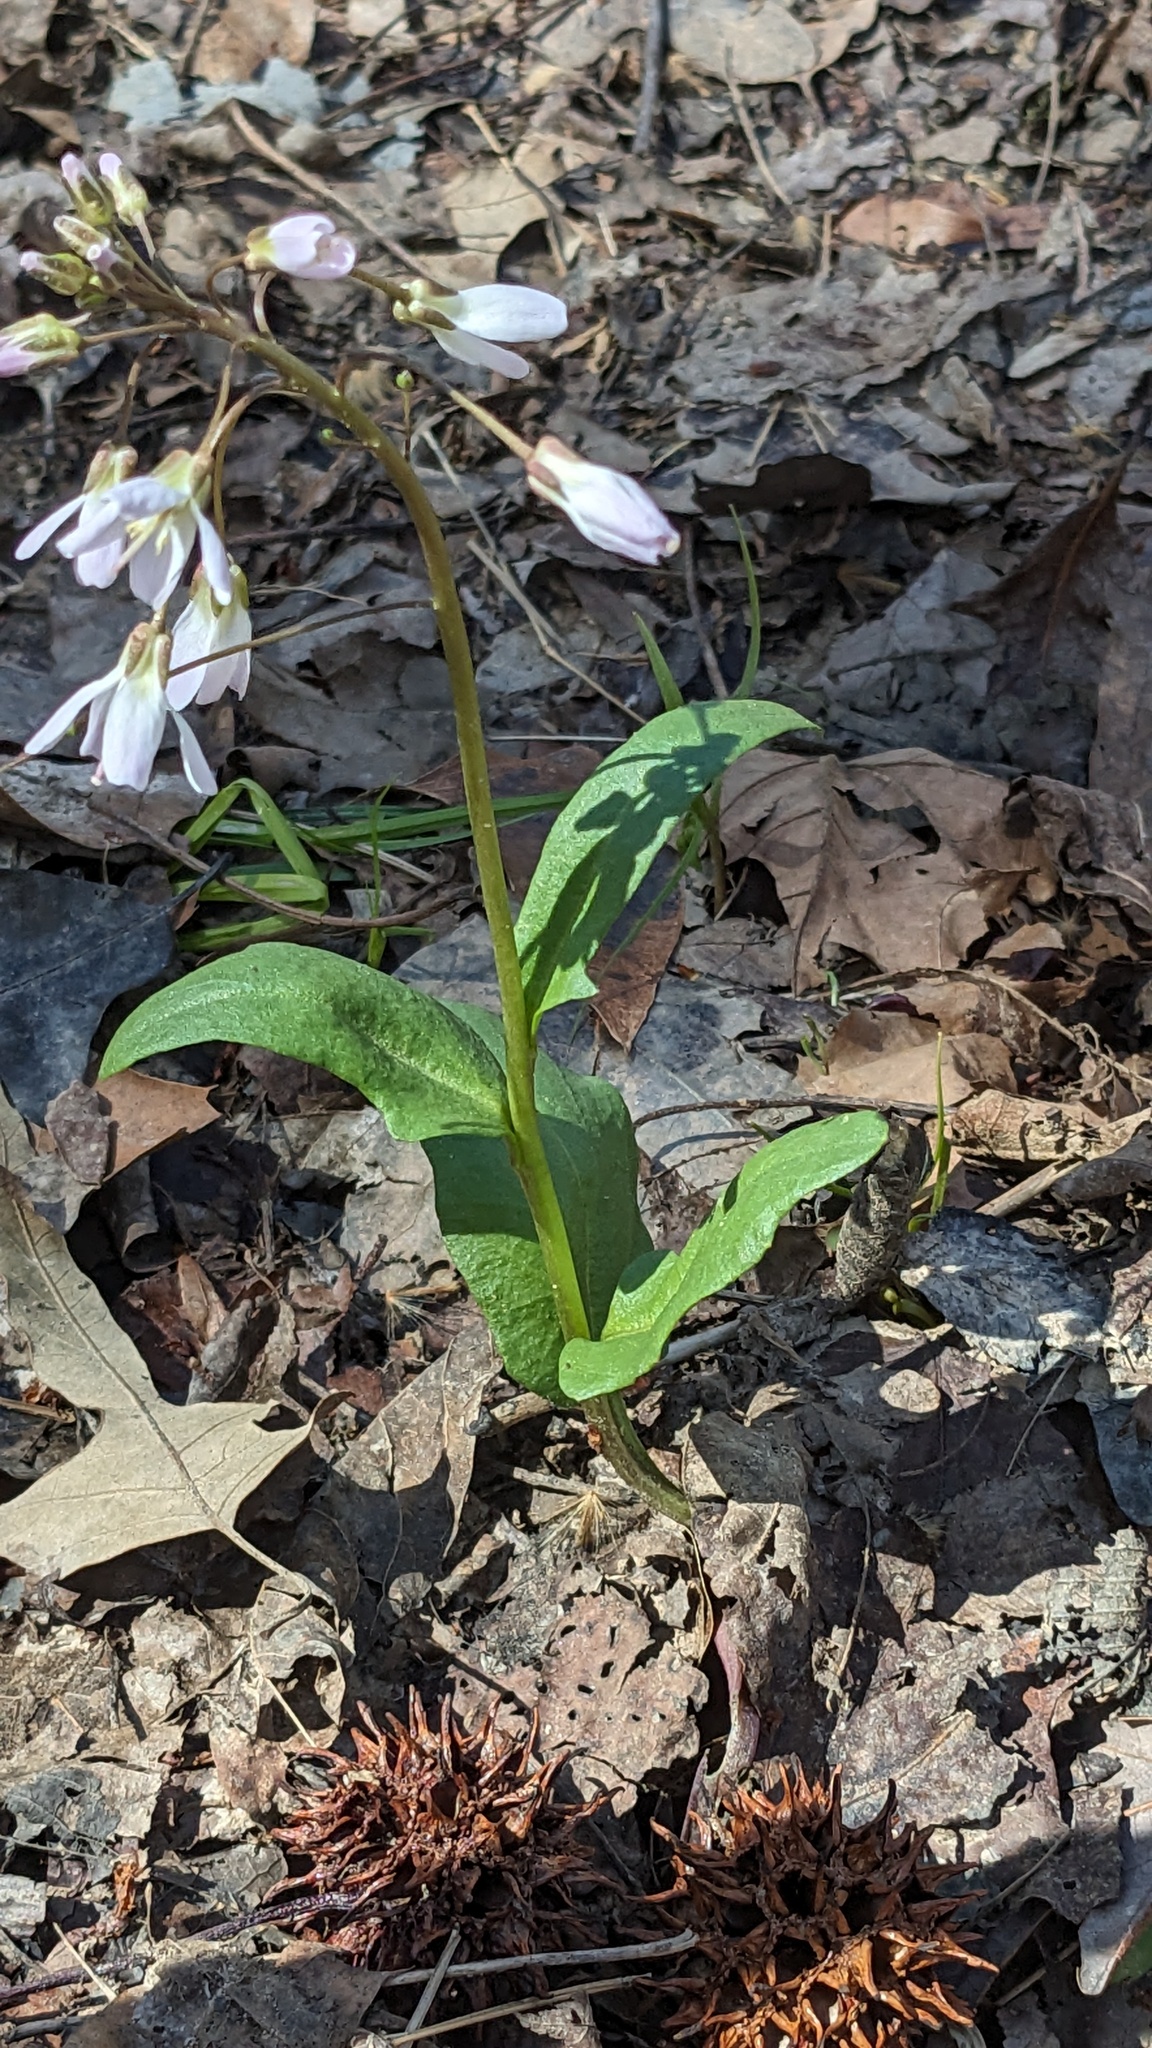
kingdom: Plantae
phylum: Tracheophyta
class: Magnoliopsida
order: Brassicales
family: Brassicaceae
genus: Cardamine
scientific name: Cardamine douglassii
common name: Purple cress
